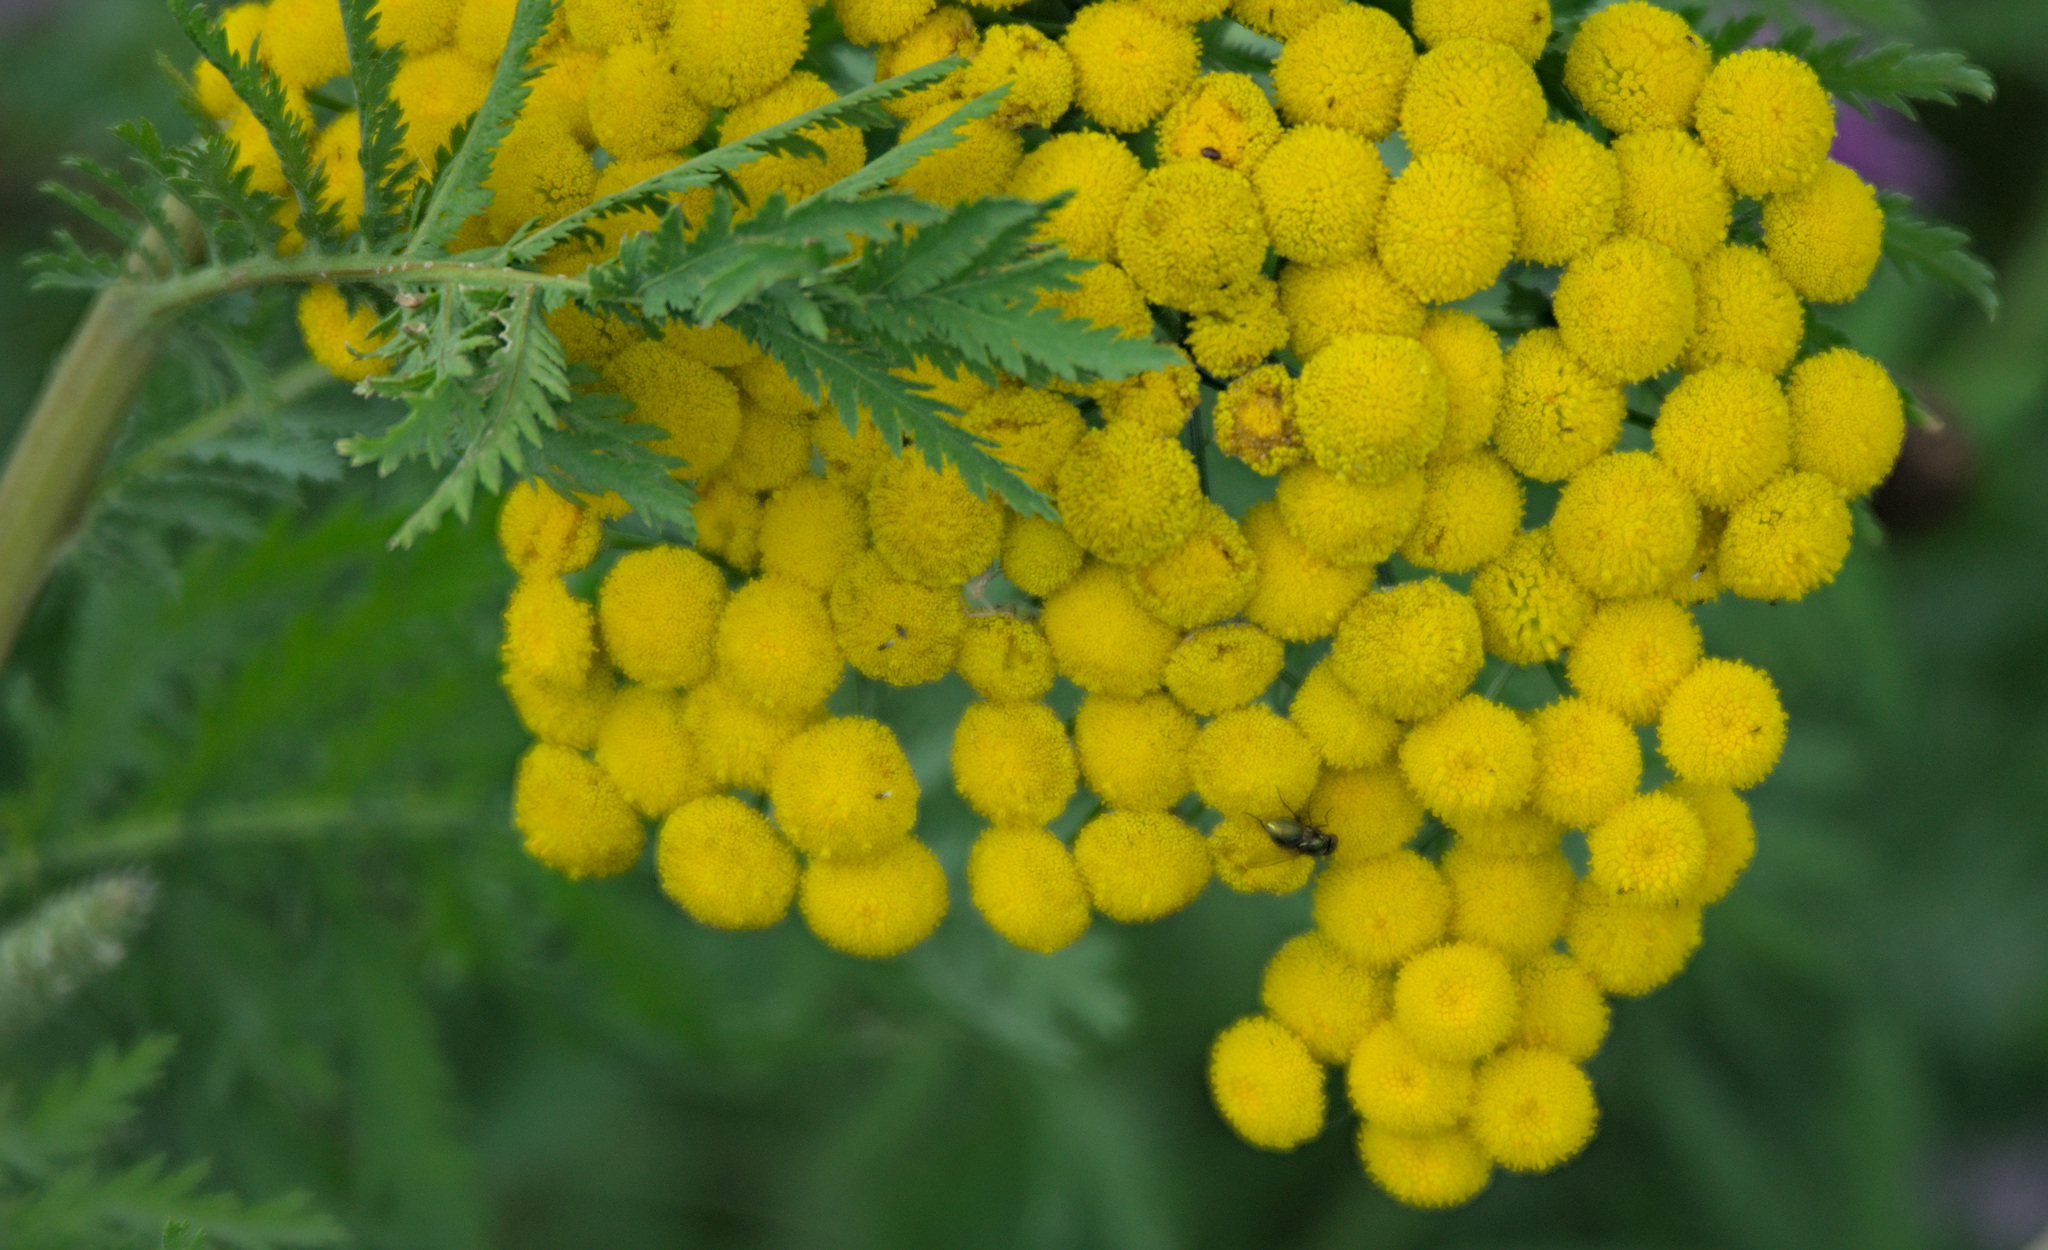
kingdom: Plantae
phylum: Tracheophyta
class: Magnoliopsida
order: Asterales
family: Asteraceae
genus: Tanacetum
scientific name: Tanacetum vulgare
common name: Common tansy
